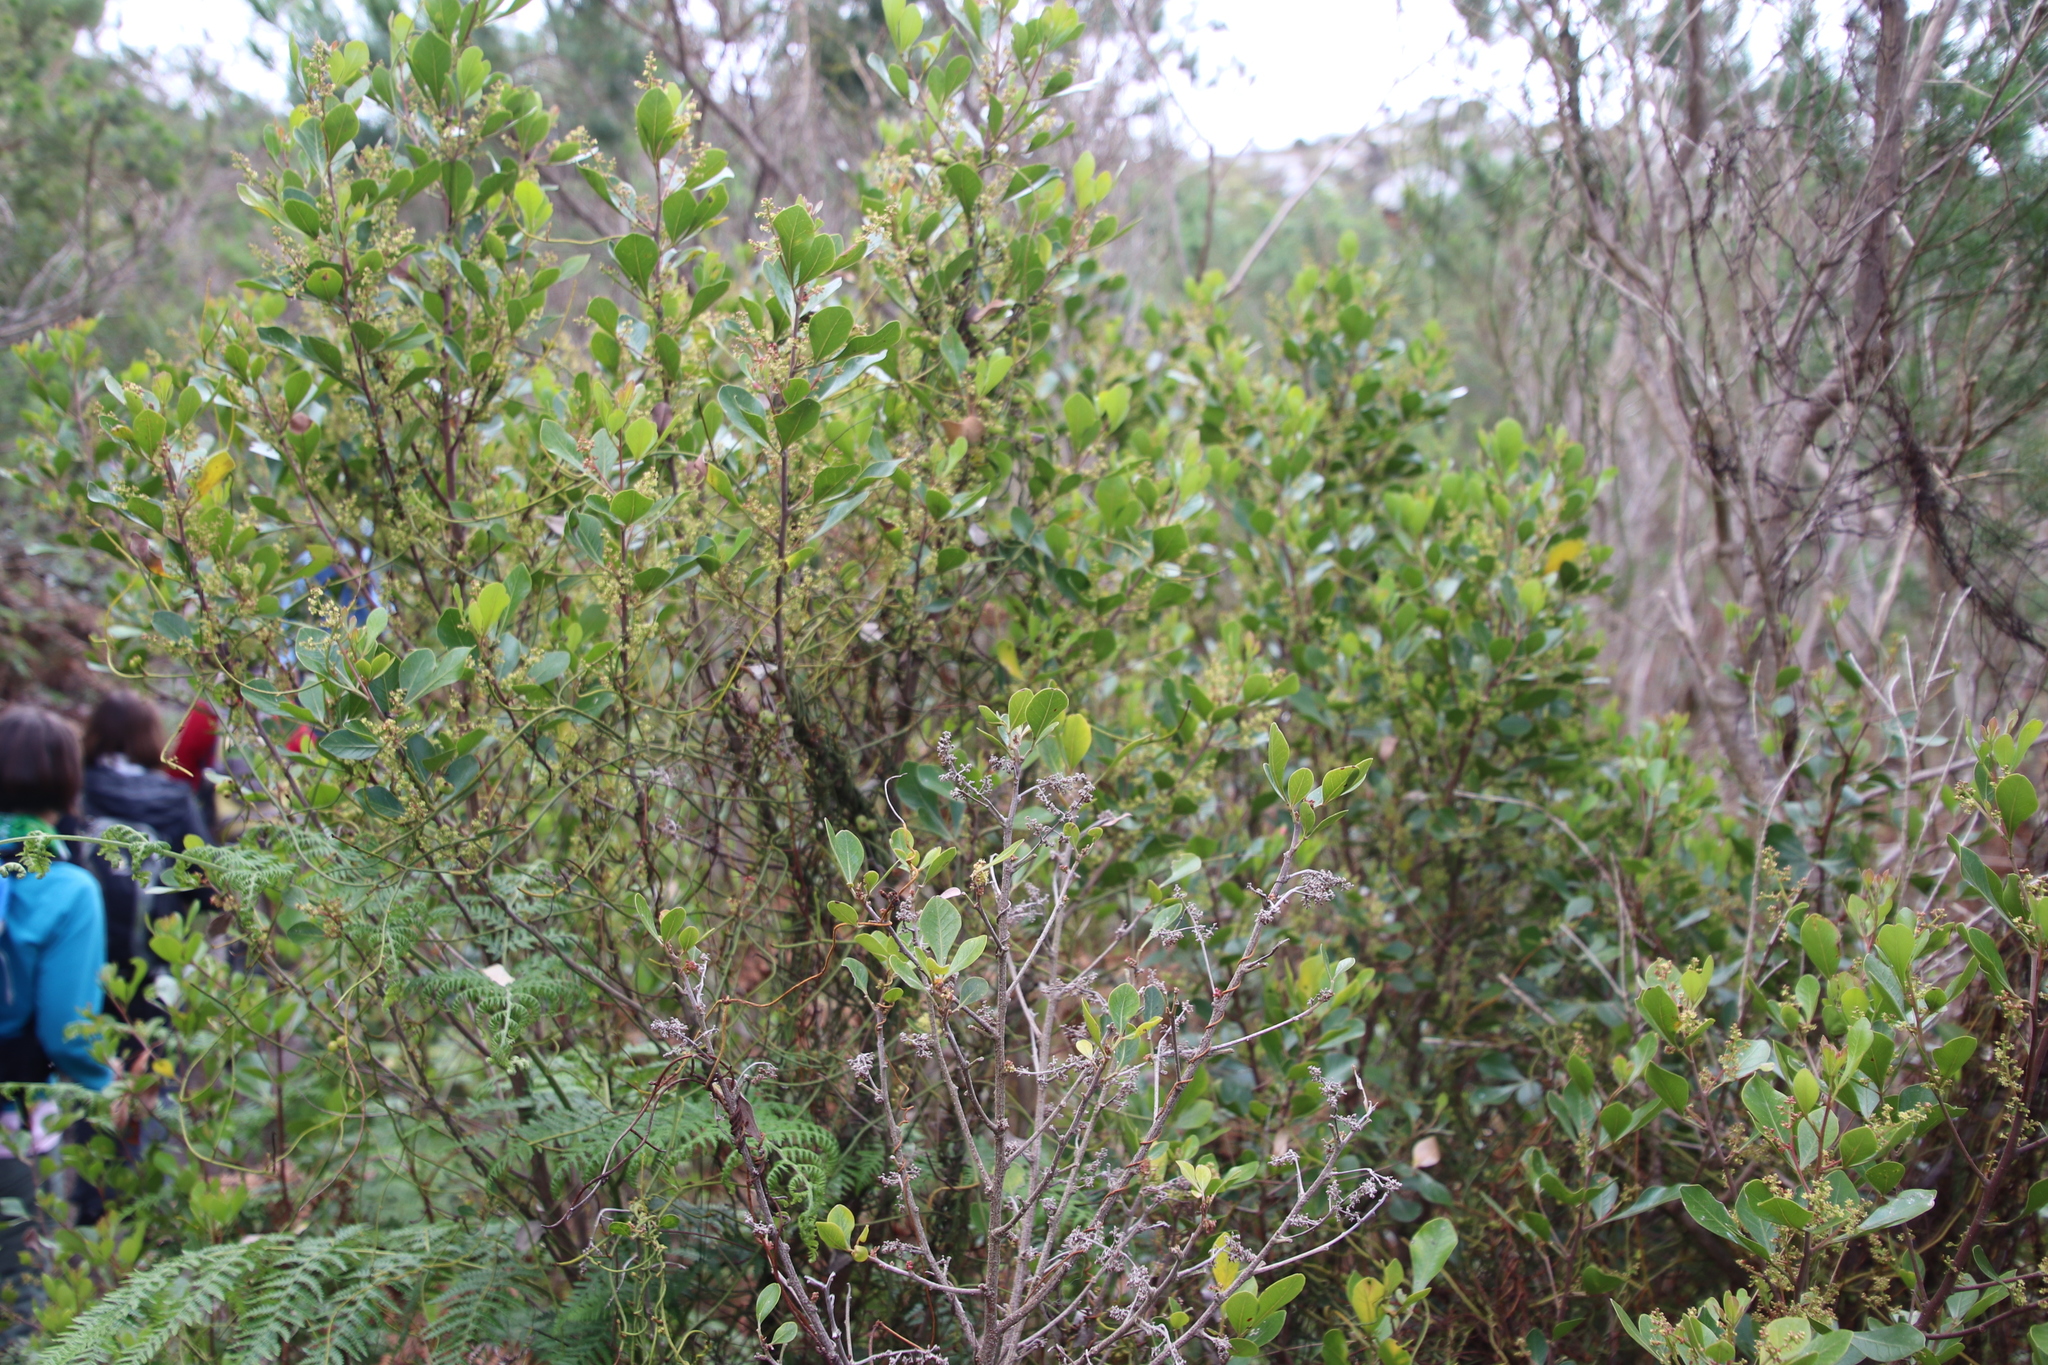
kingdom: Plantae
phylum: Tracheophyta
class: Magnoliopsida
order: Sapindales
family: Anacardiaceae
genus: Searsia
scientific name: Searsia lucida
